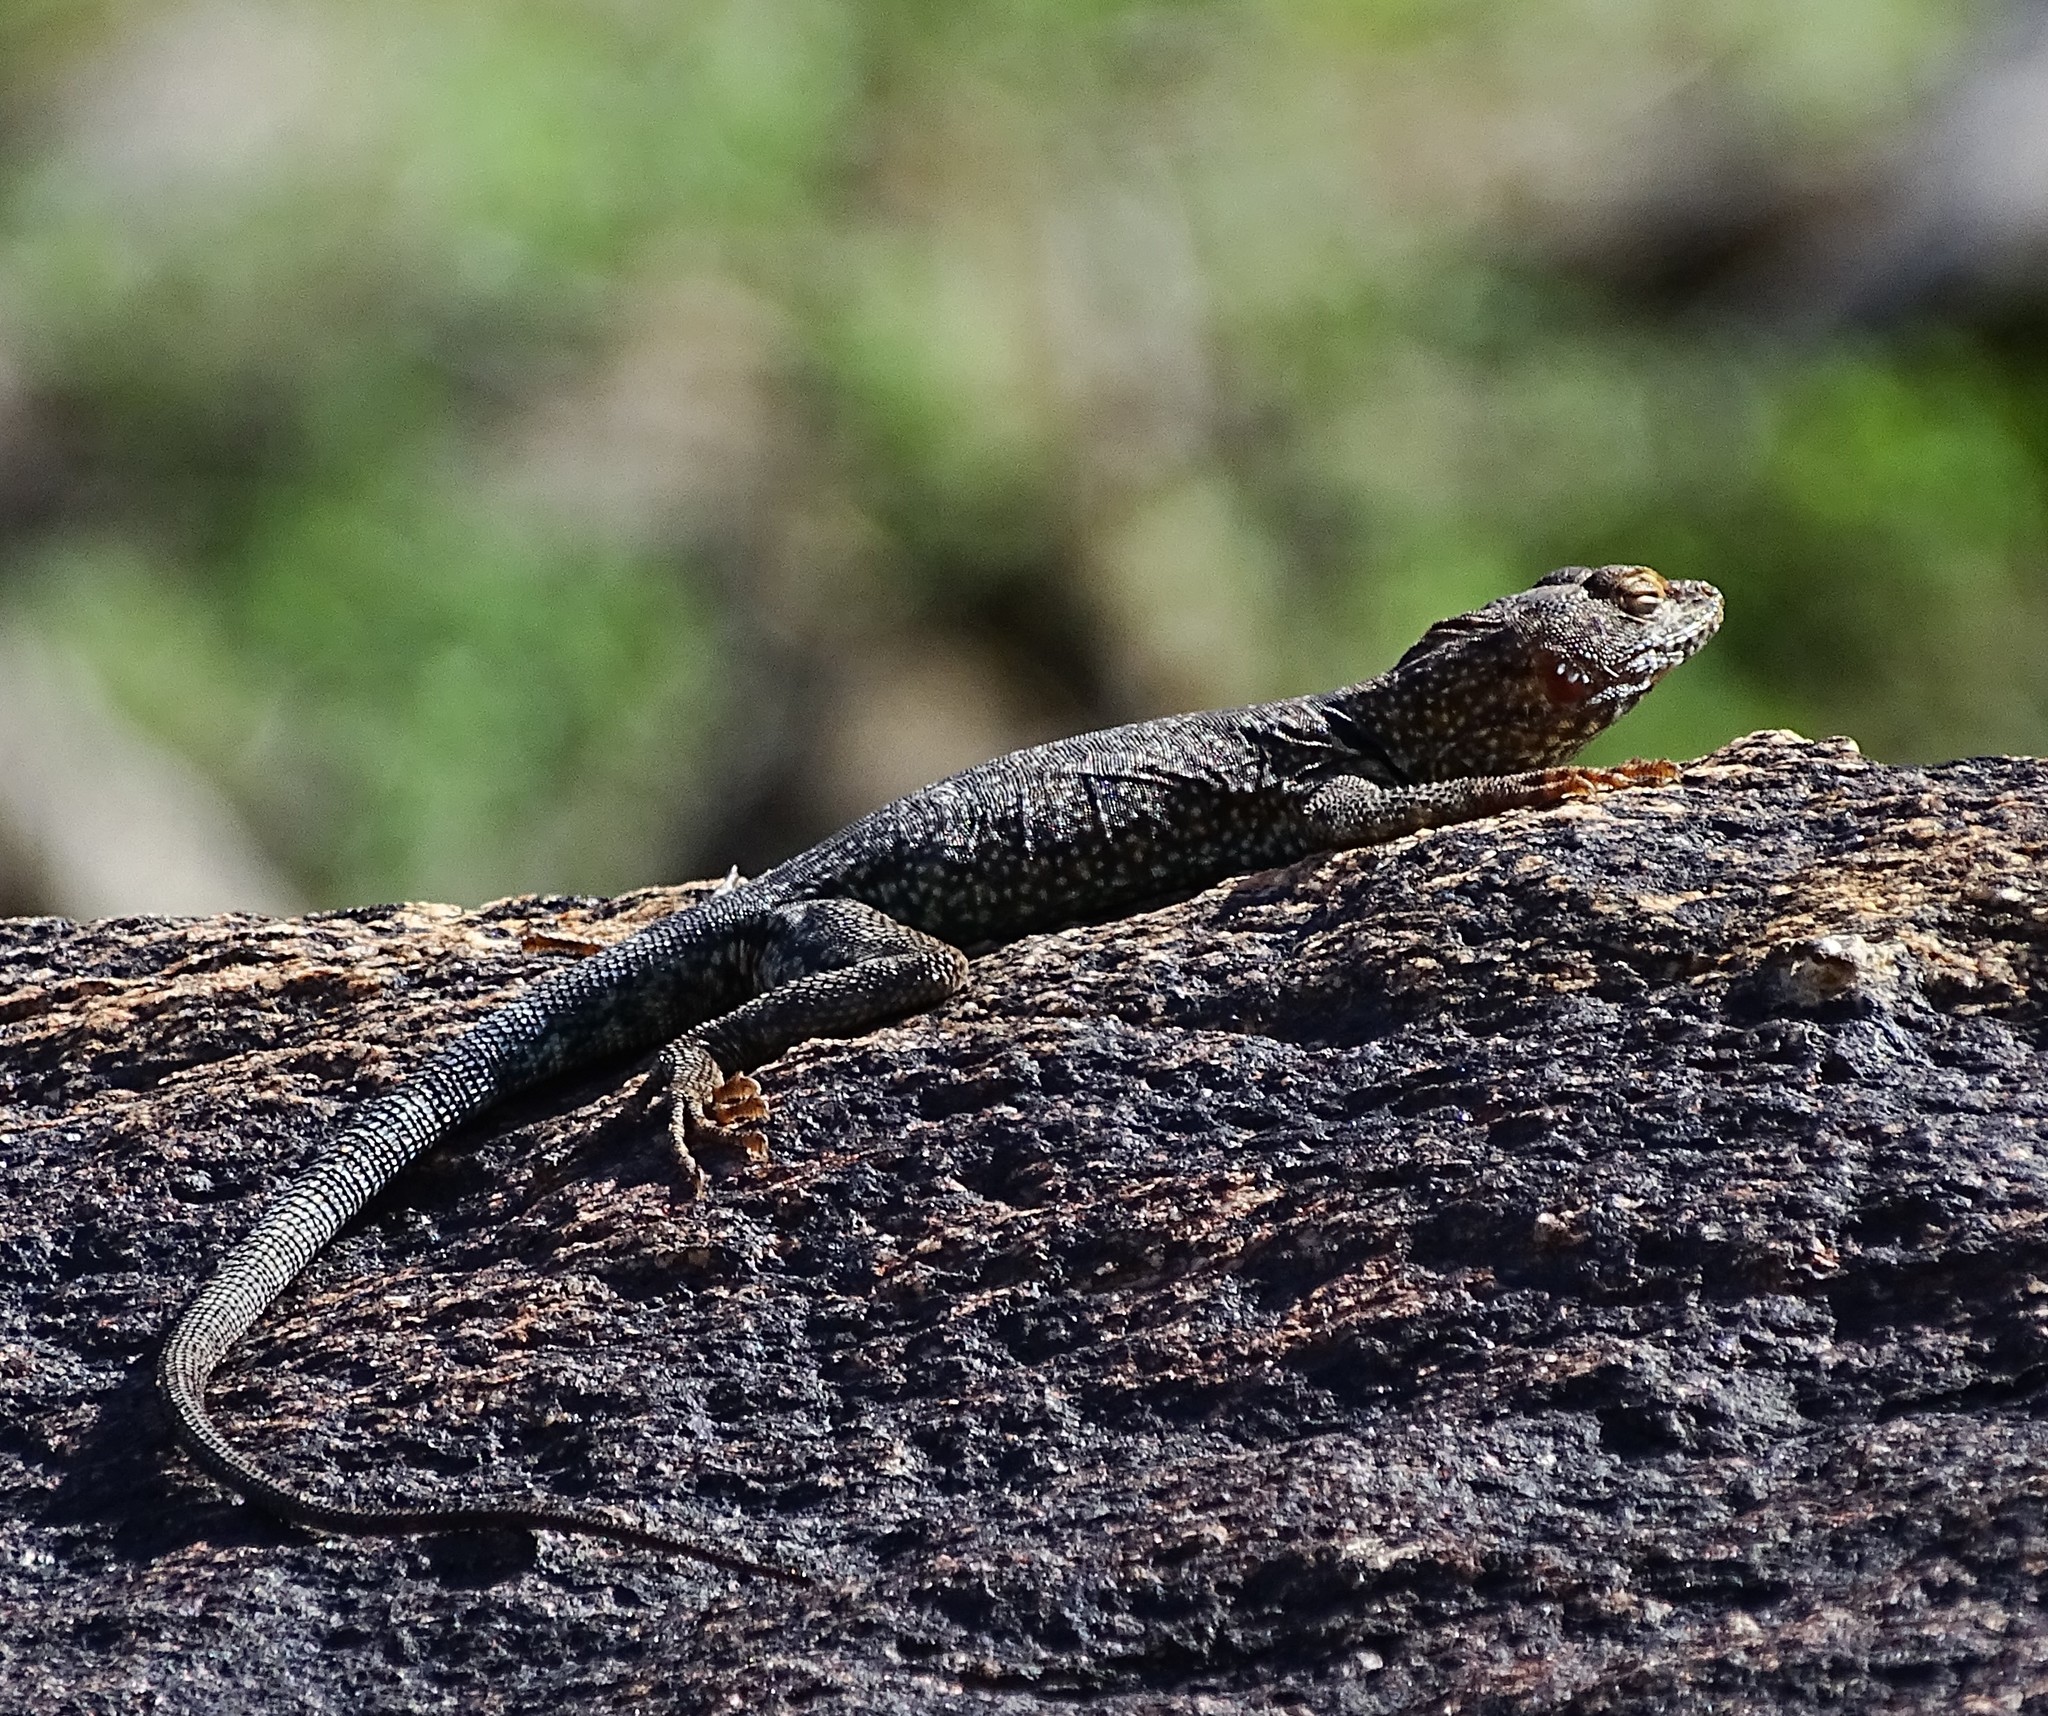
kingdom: Animalia
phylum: Chordata
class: Squamata
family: Phrynosomatidae
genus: Petrosaurus
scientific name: Petrosaurus mearnsi
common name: Banded rock lizard
